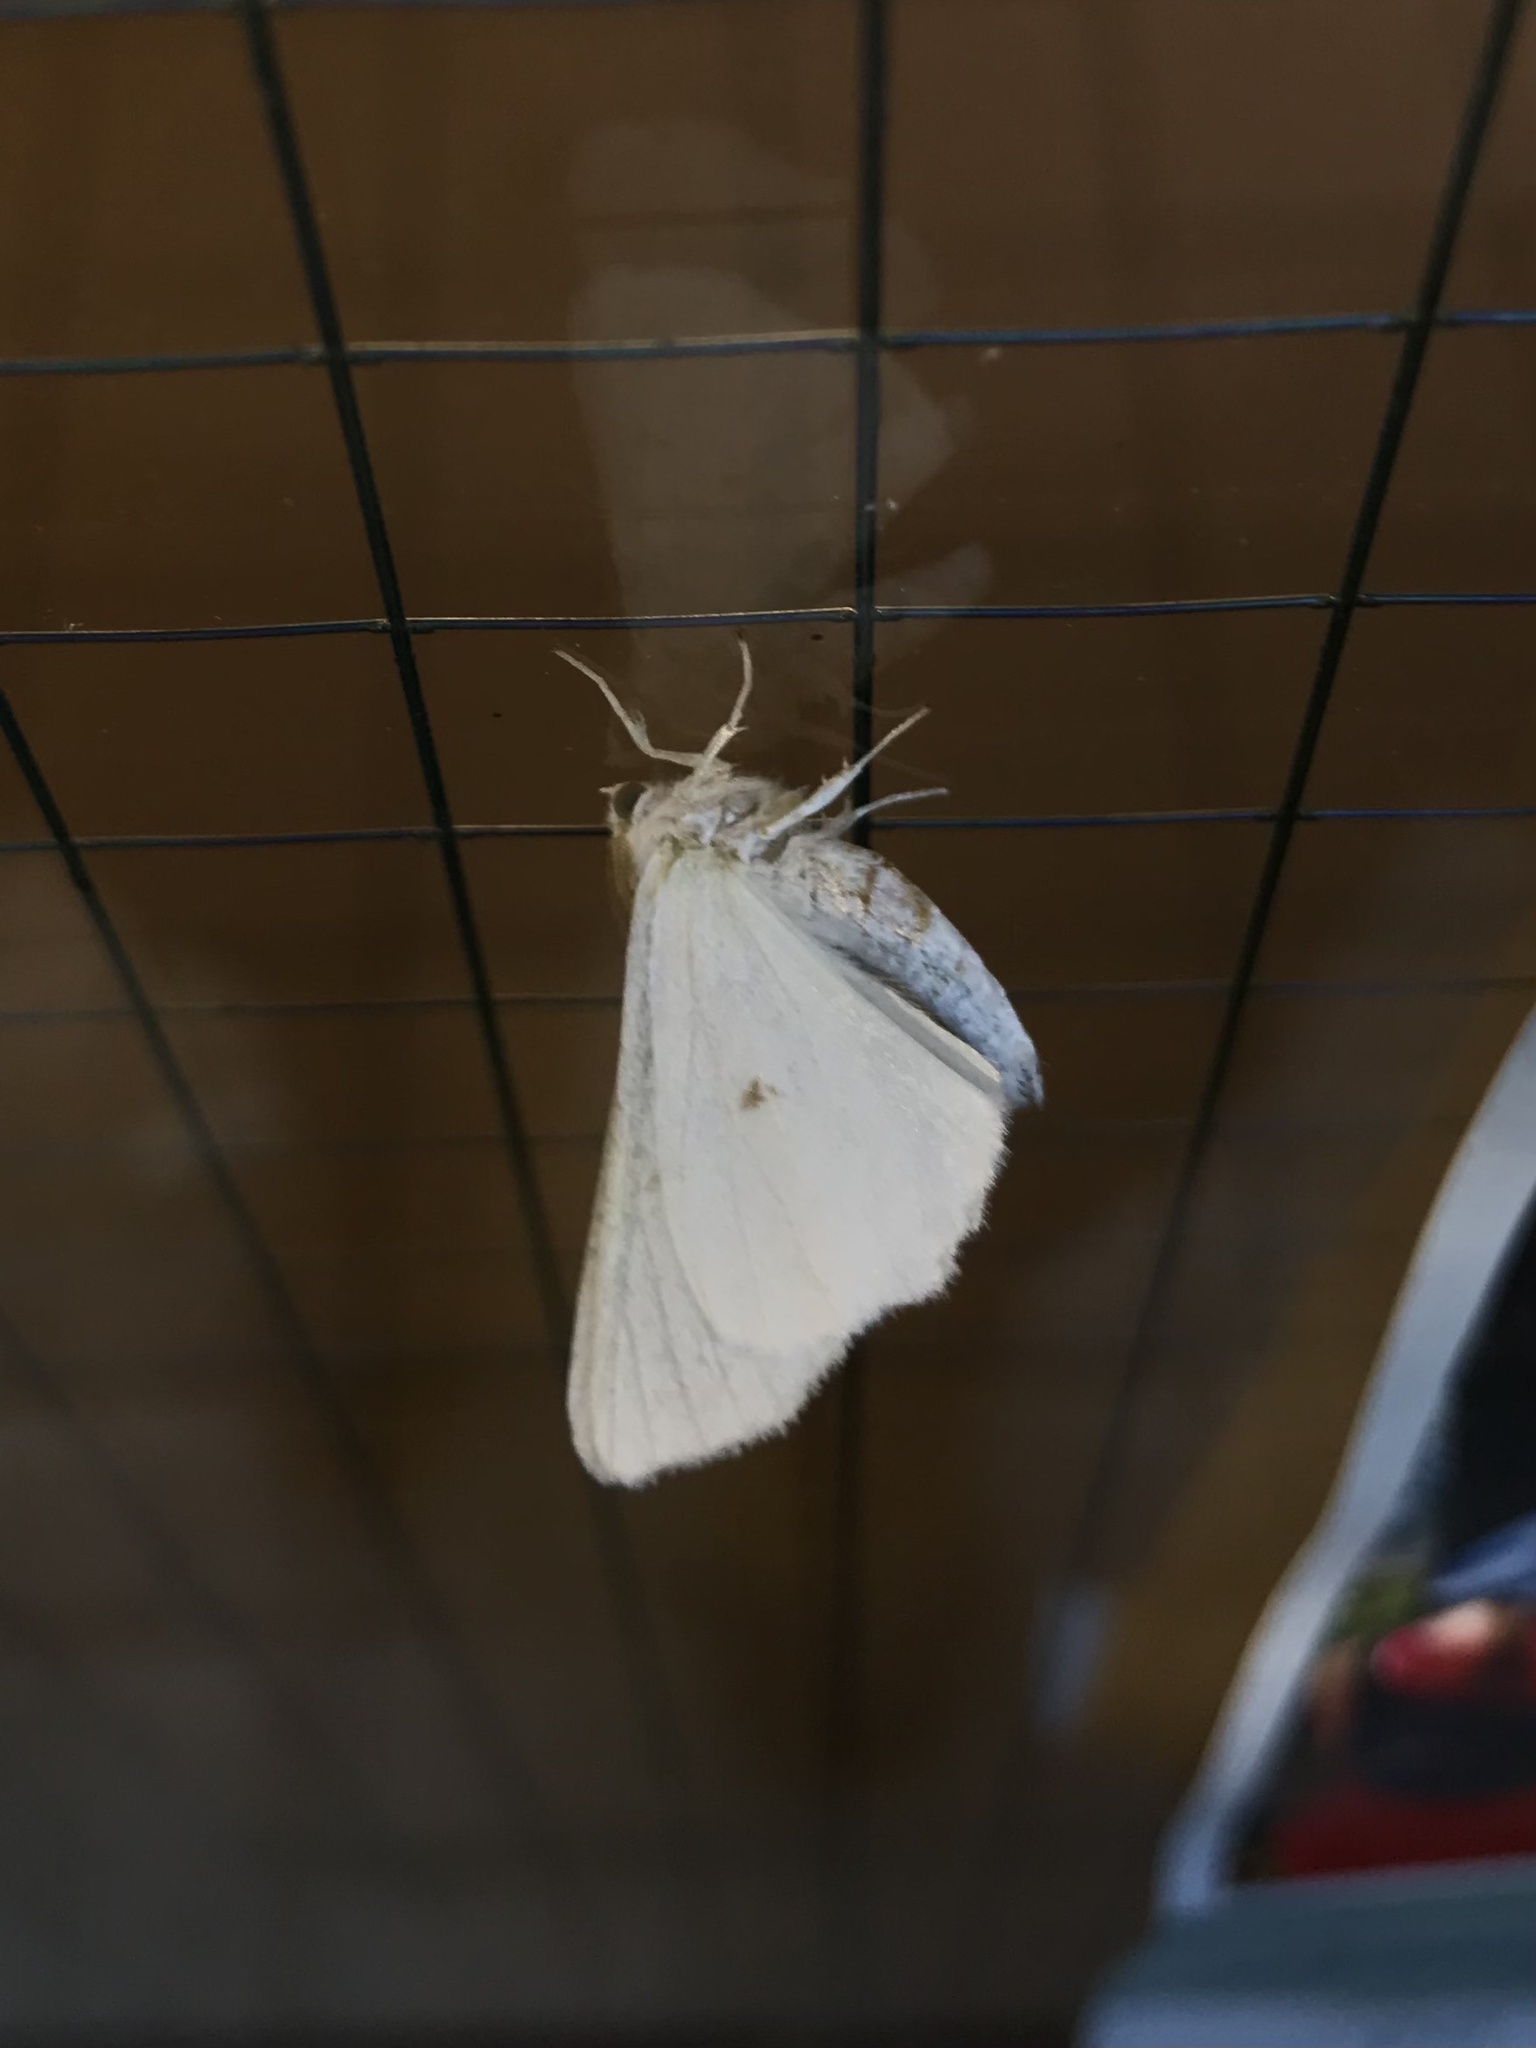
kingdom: Animalia
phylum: Arthropoda
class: Insecta
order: Lepidoptera
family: Geometridae
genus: Ennomos
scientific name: Ennomos subsignaria
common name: Elm spanworm
